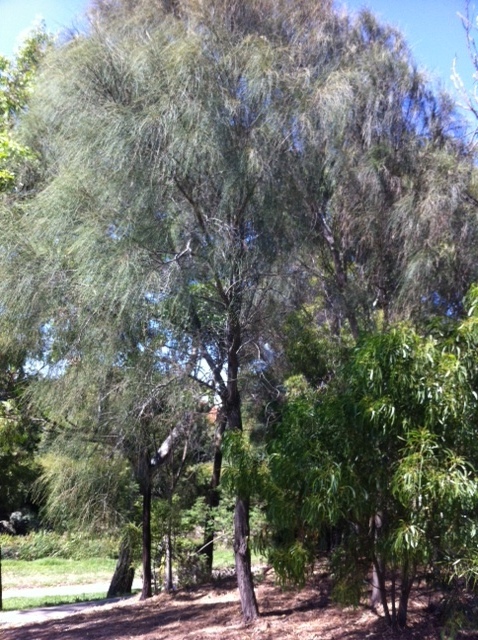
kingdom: Plantae
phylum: Tracheophyta
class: Magnoliopsida
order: Fagales
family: Casuarinaceae
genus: Allocasuarina
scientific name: Allocasuarina verticillata
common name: Drooping she-oak
